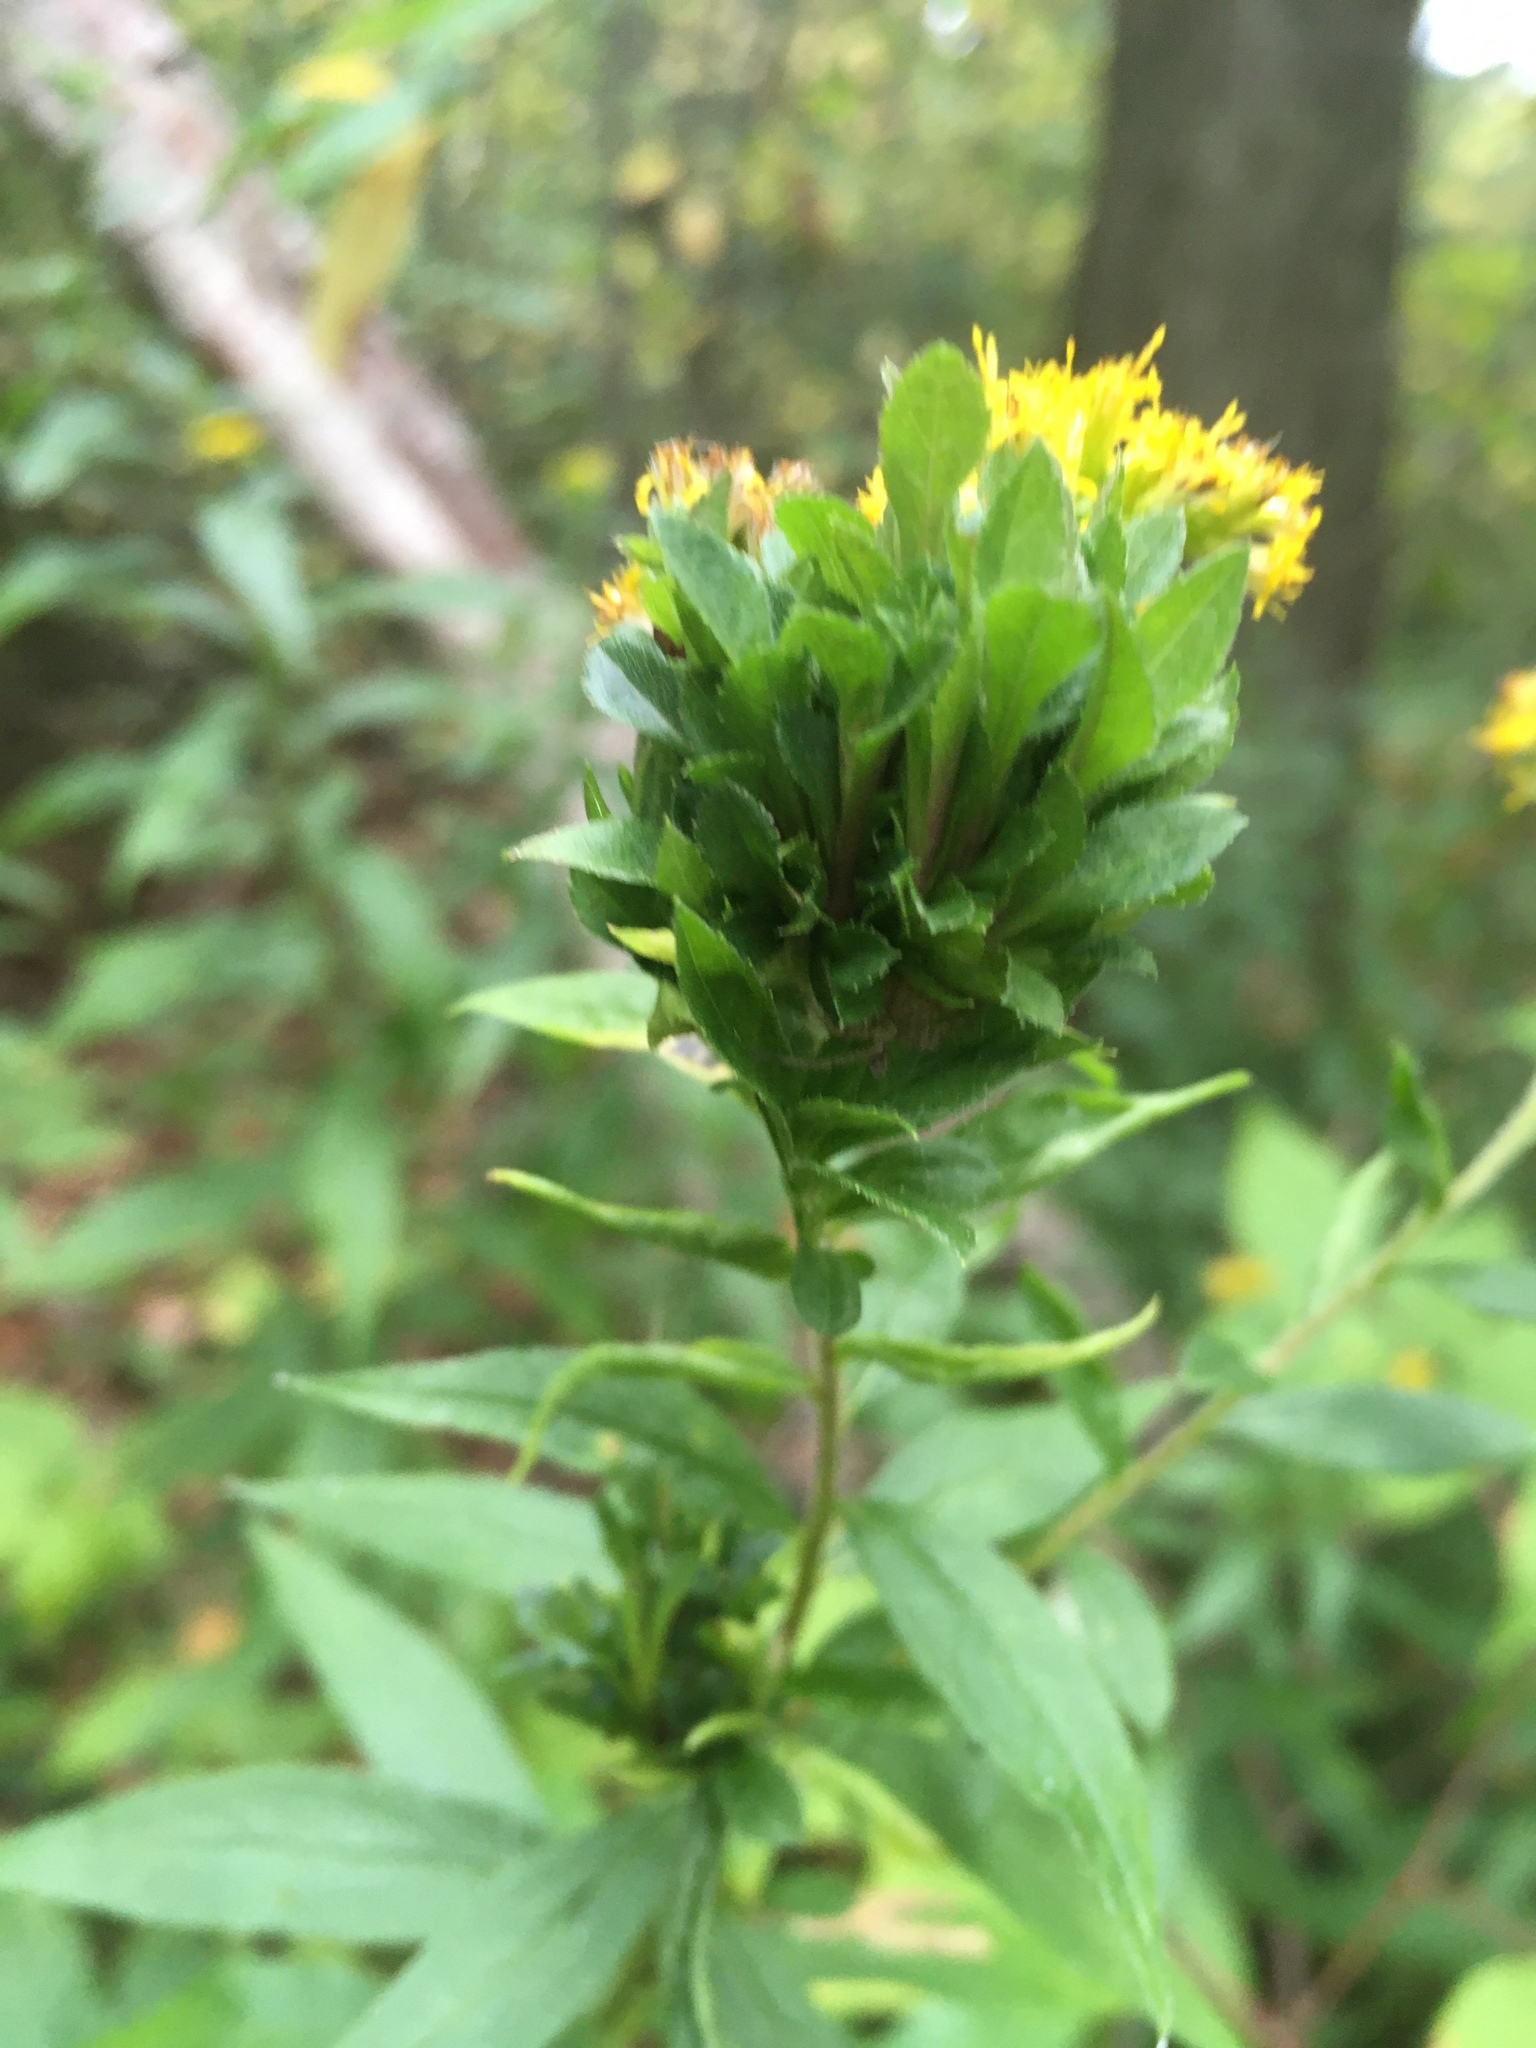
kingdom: Animalia
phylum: Arthropoda
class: Insecta
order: Diptera
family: Cecidomyiidae
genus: Asphondylia
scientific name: Asphondylia
